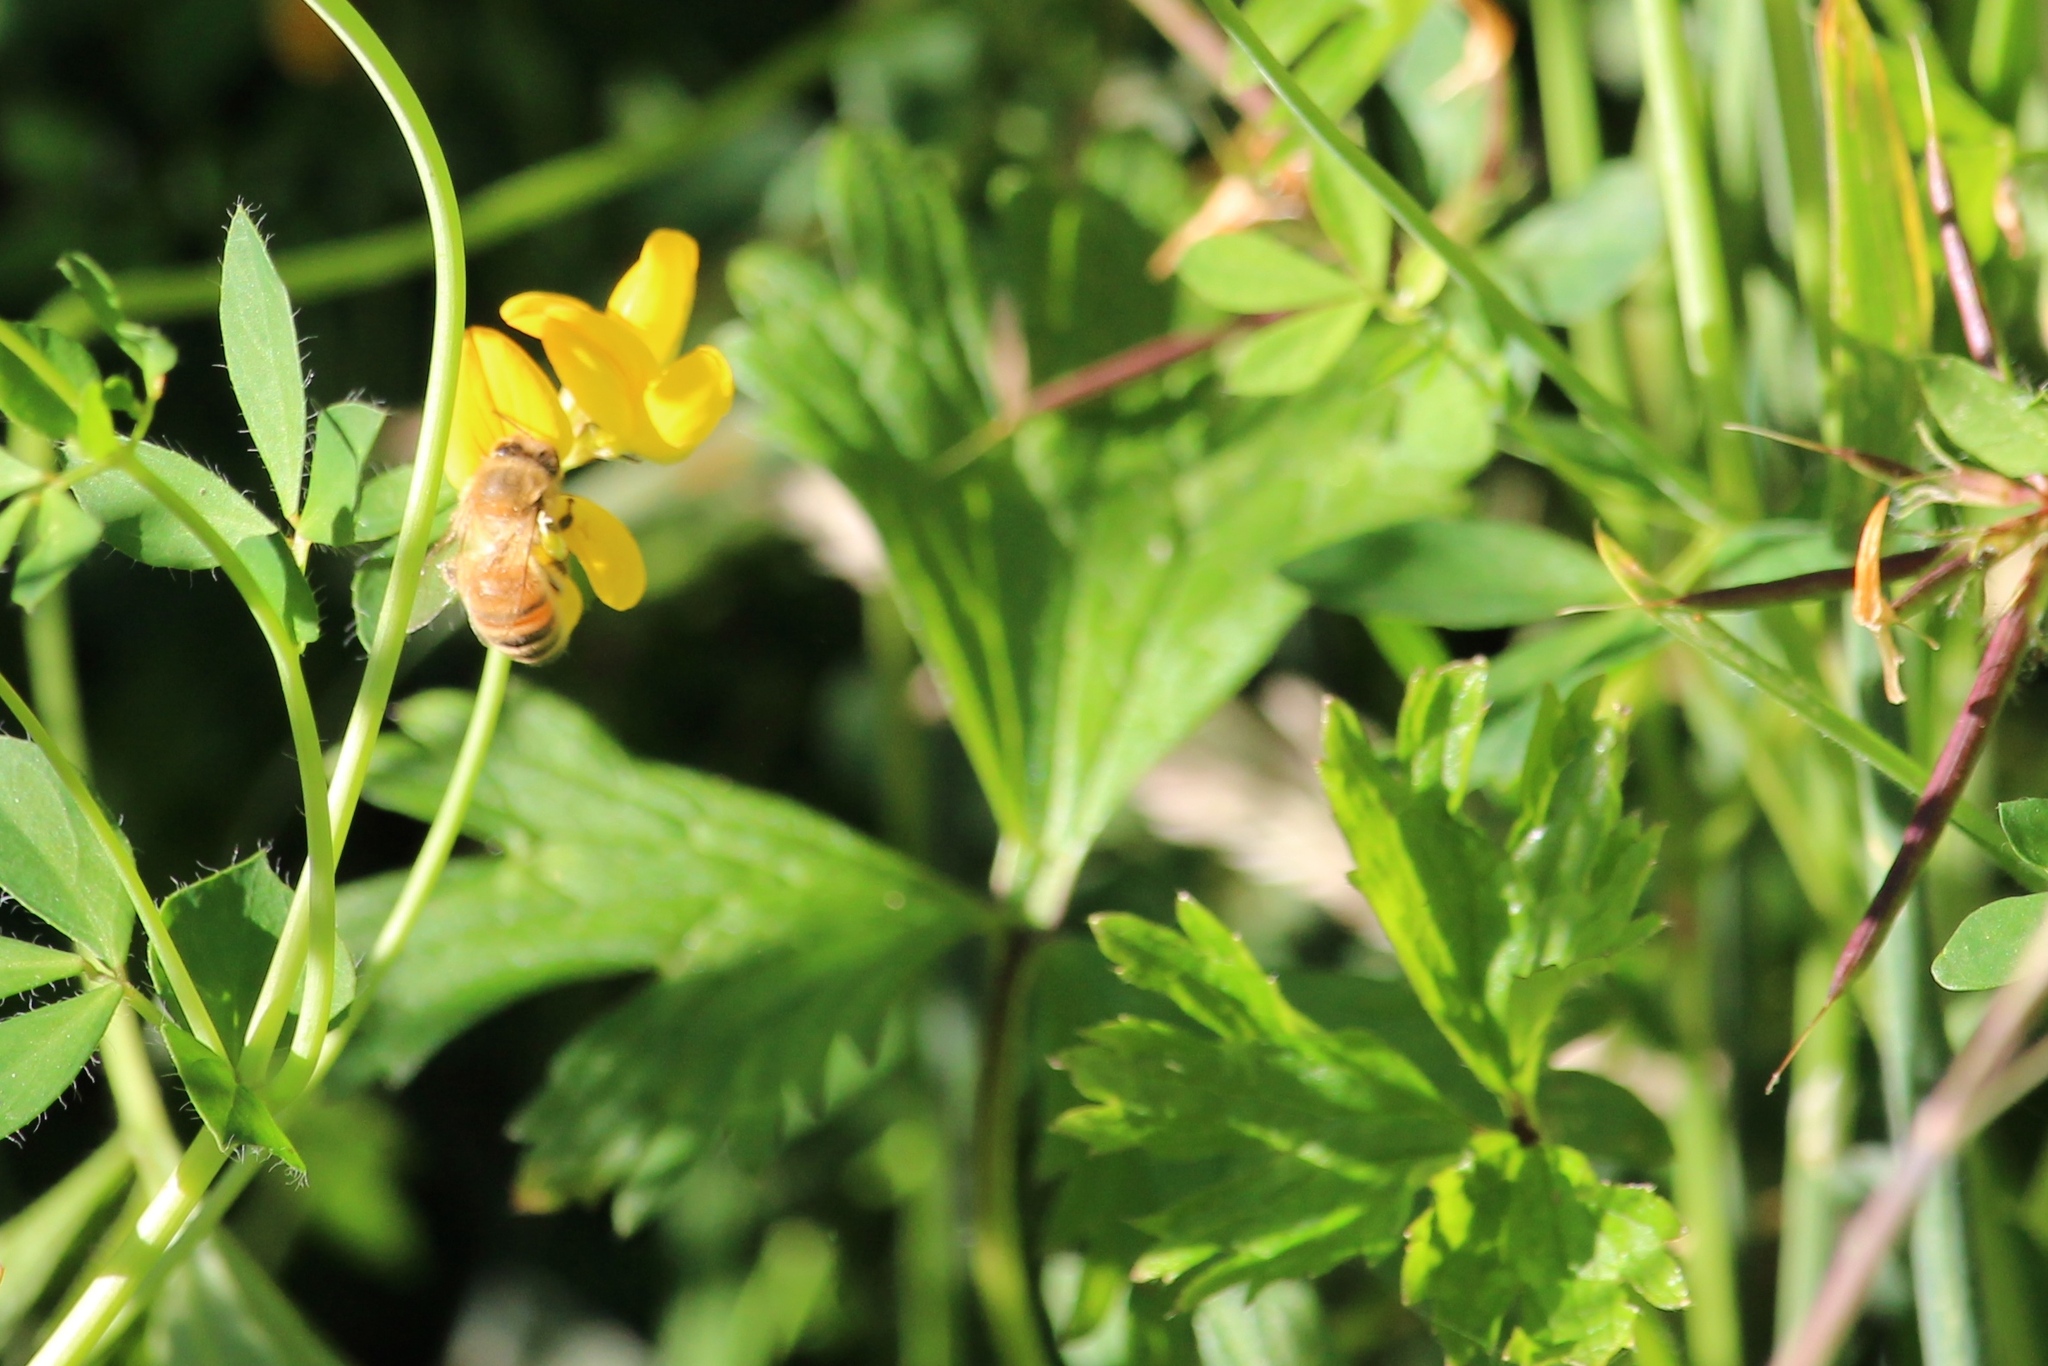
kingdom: Animalia
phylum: Arthropoda
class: Insecta
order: Hymenoptera
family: Apidae
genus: Apis
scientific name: Apis mellifera
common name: Honey bee
